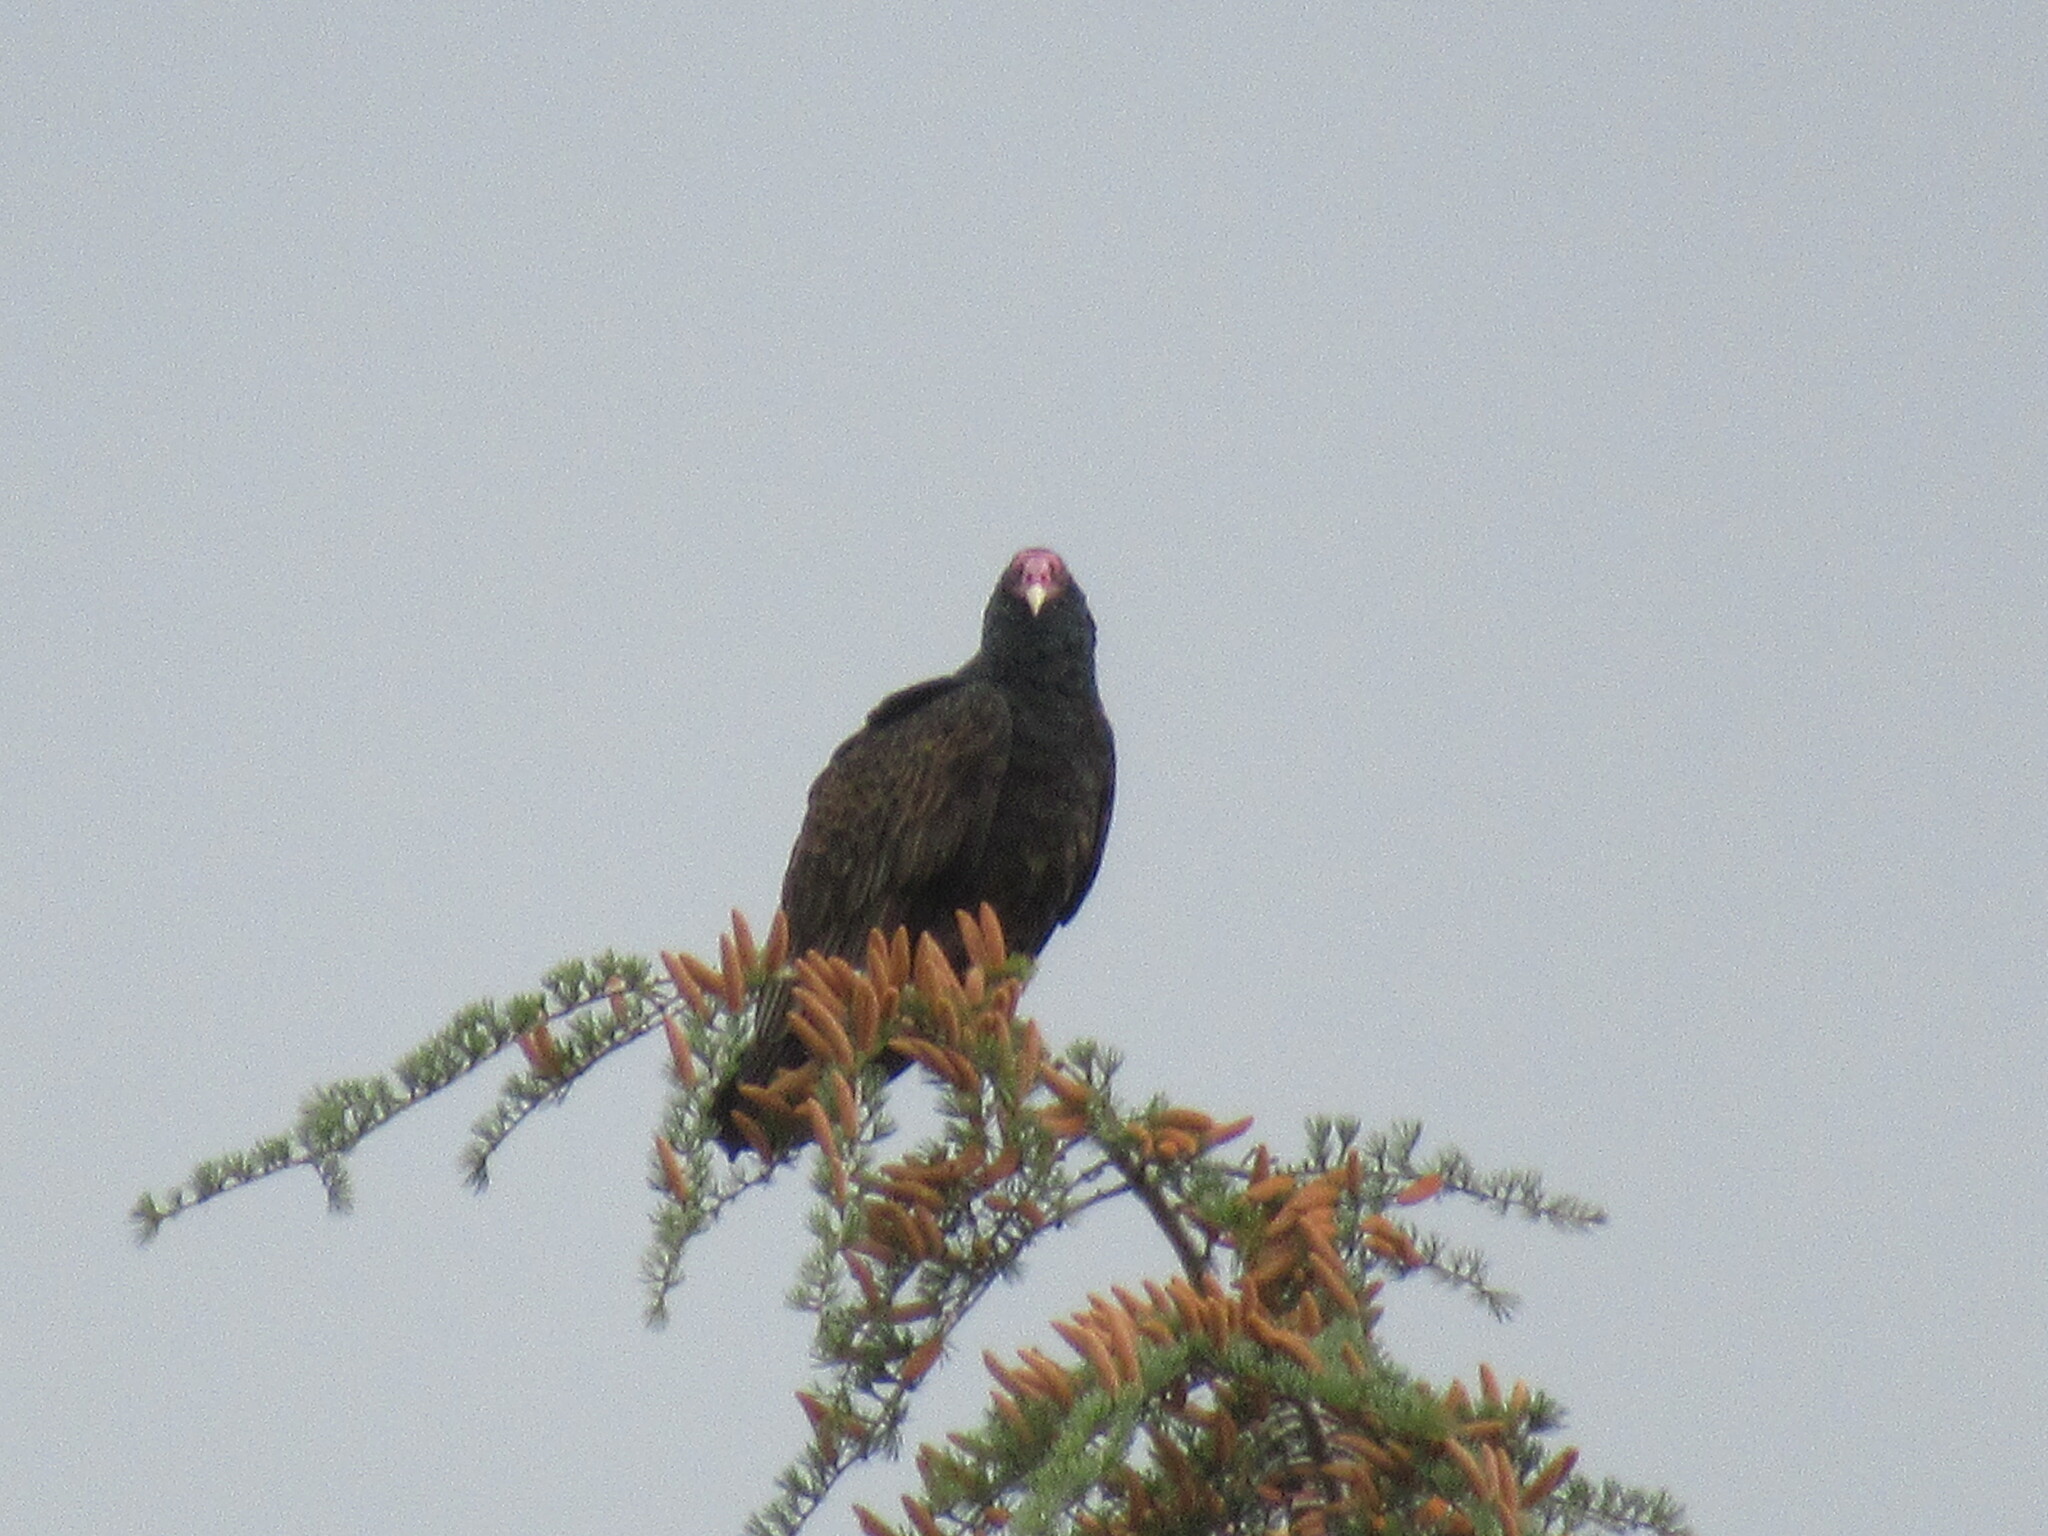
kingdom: Animalia
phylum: Chordata
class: Aves
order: Accipitriformes
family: Cathartidae
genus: Cathartes
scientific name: Cathartes aura
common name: Turkey vulture
